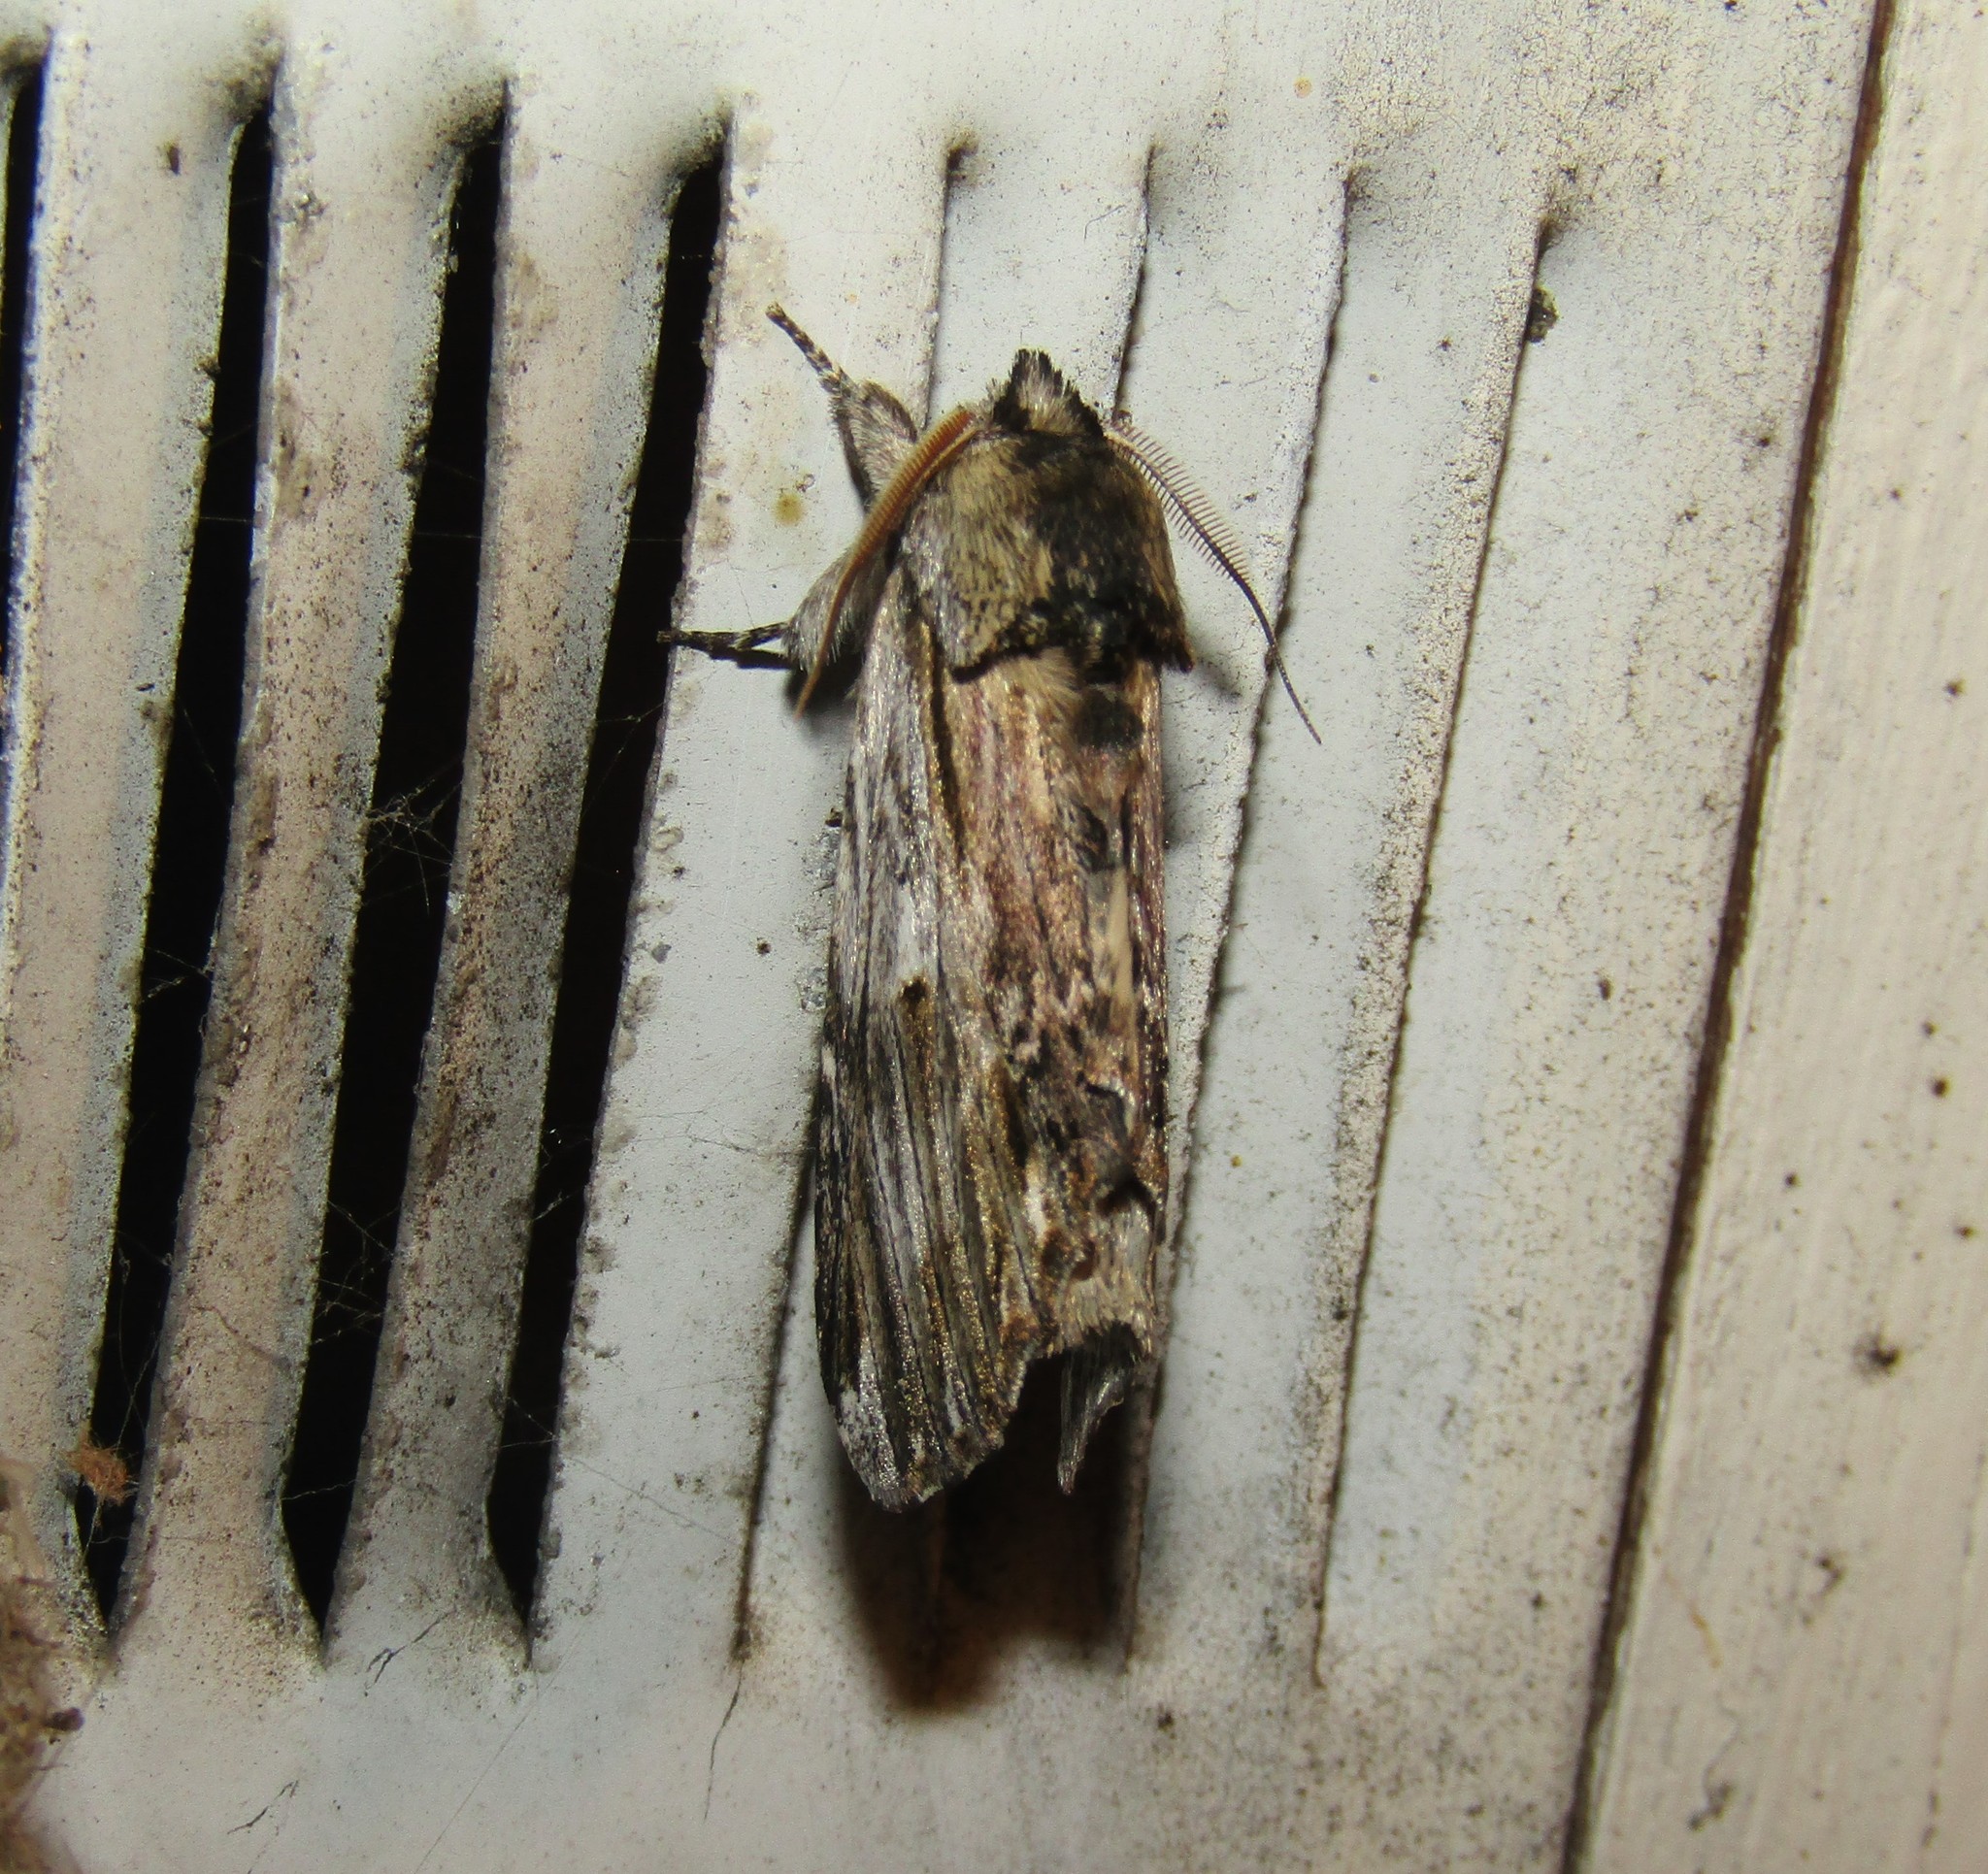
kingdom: Animalia
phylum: Arthropoda
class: Insecta
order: Lepidoptera
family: Notodontidae
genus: Oligocentria
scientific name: Oligocentria Ianassa lignicolor
